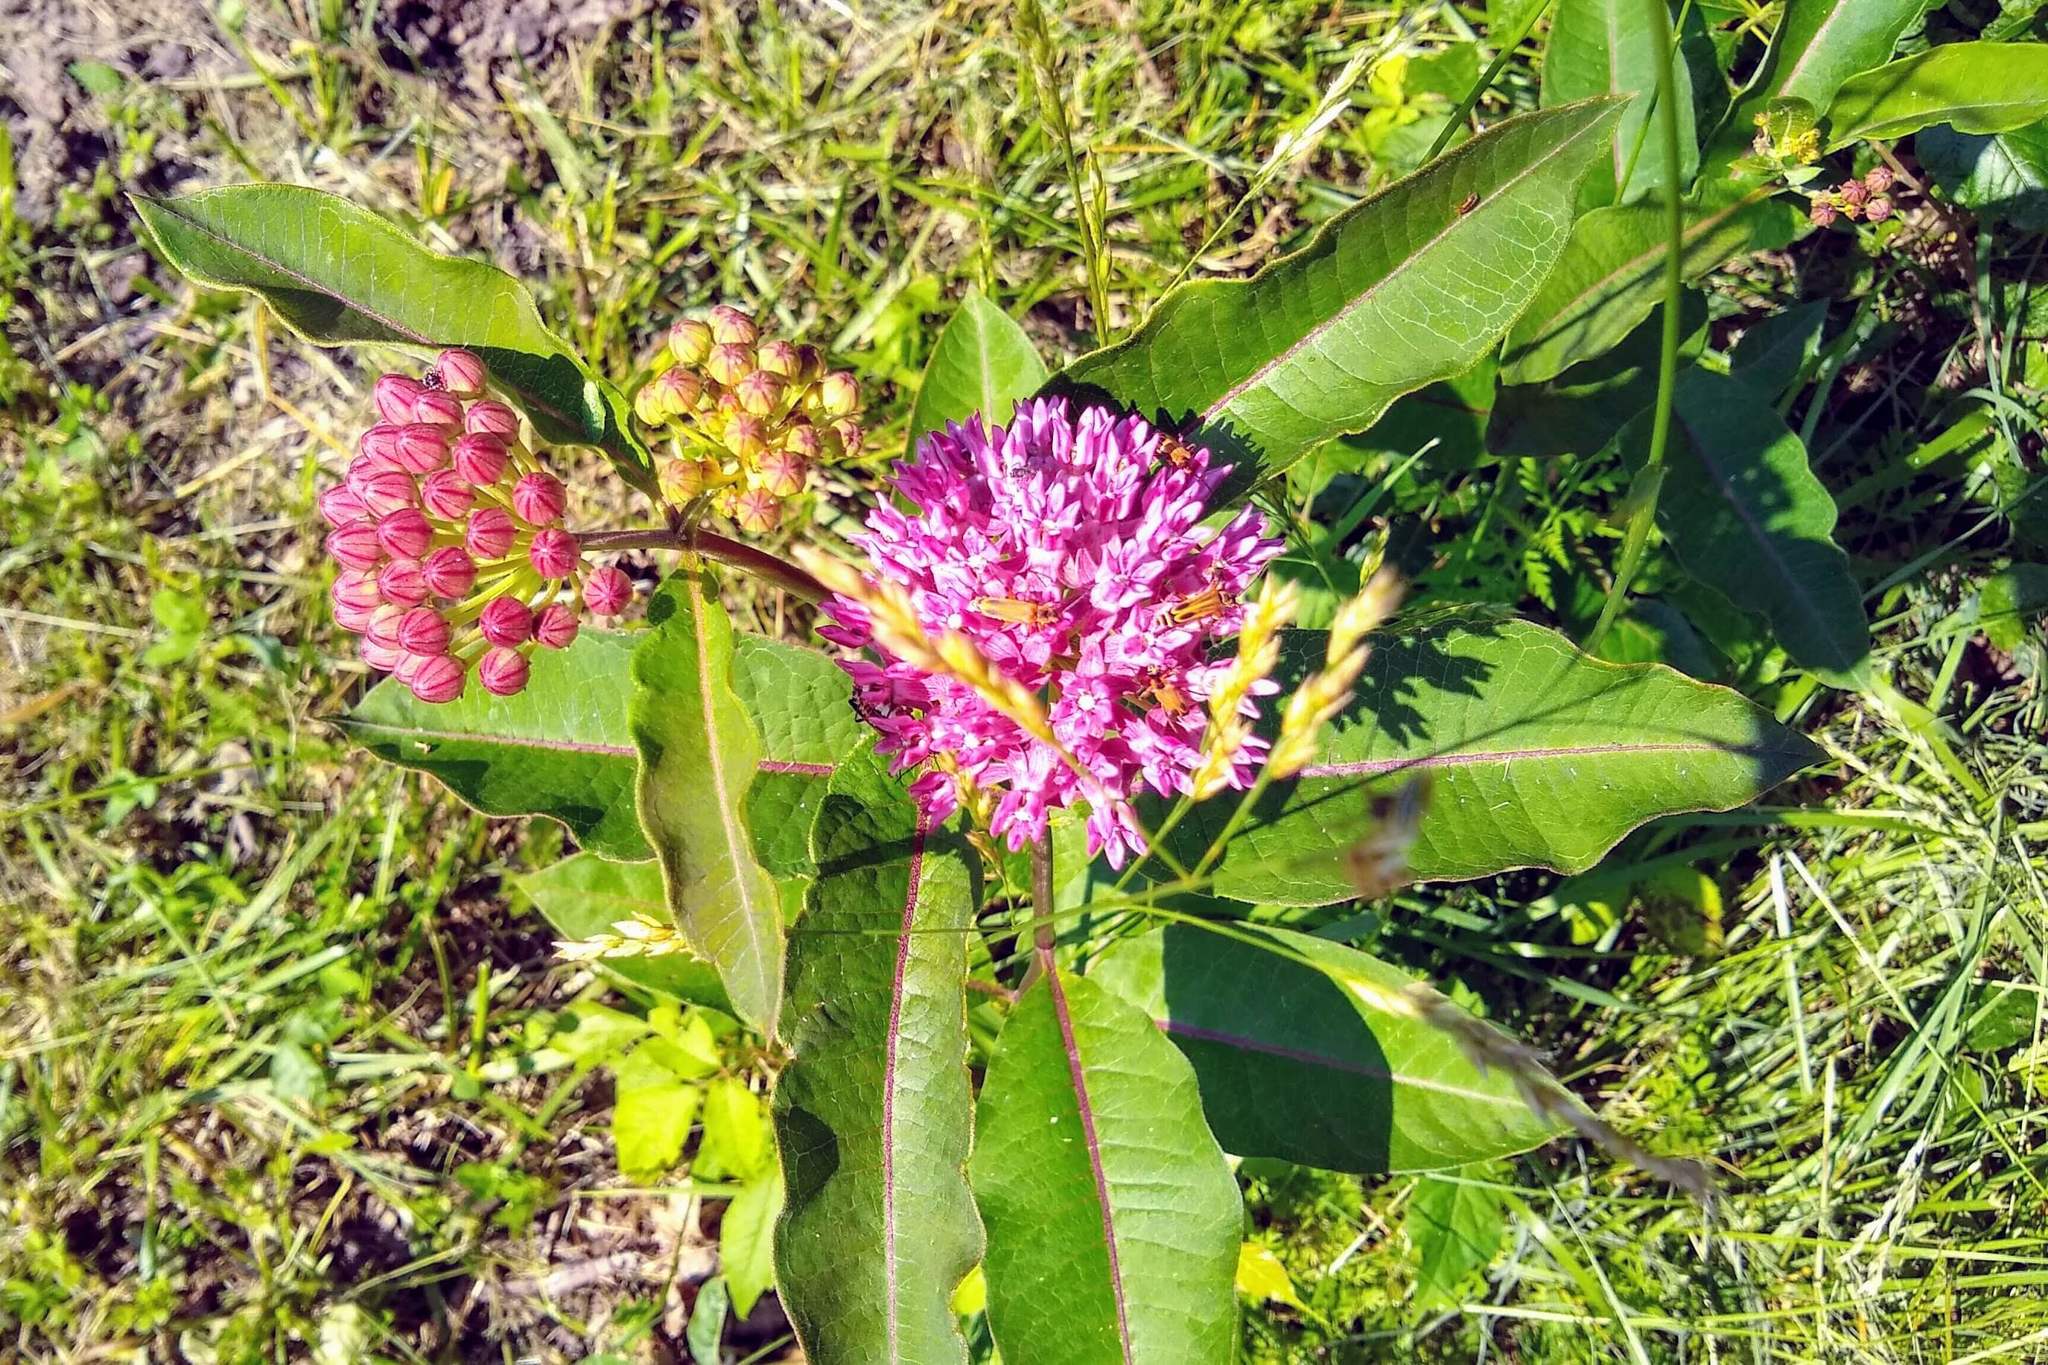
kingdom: Plantae
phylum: Tracheophyta
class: Magnoliopsida
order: Gentianales
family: Apocynaceae
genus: Asclepias
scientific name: Asclepias purpurascens
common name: Purple milkweed
